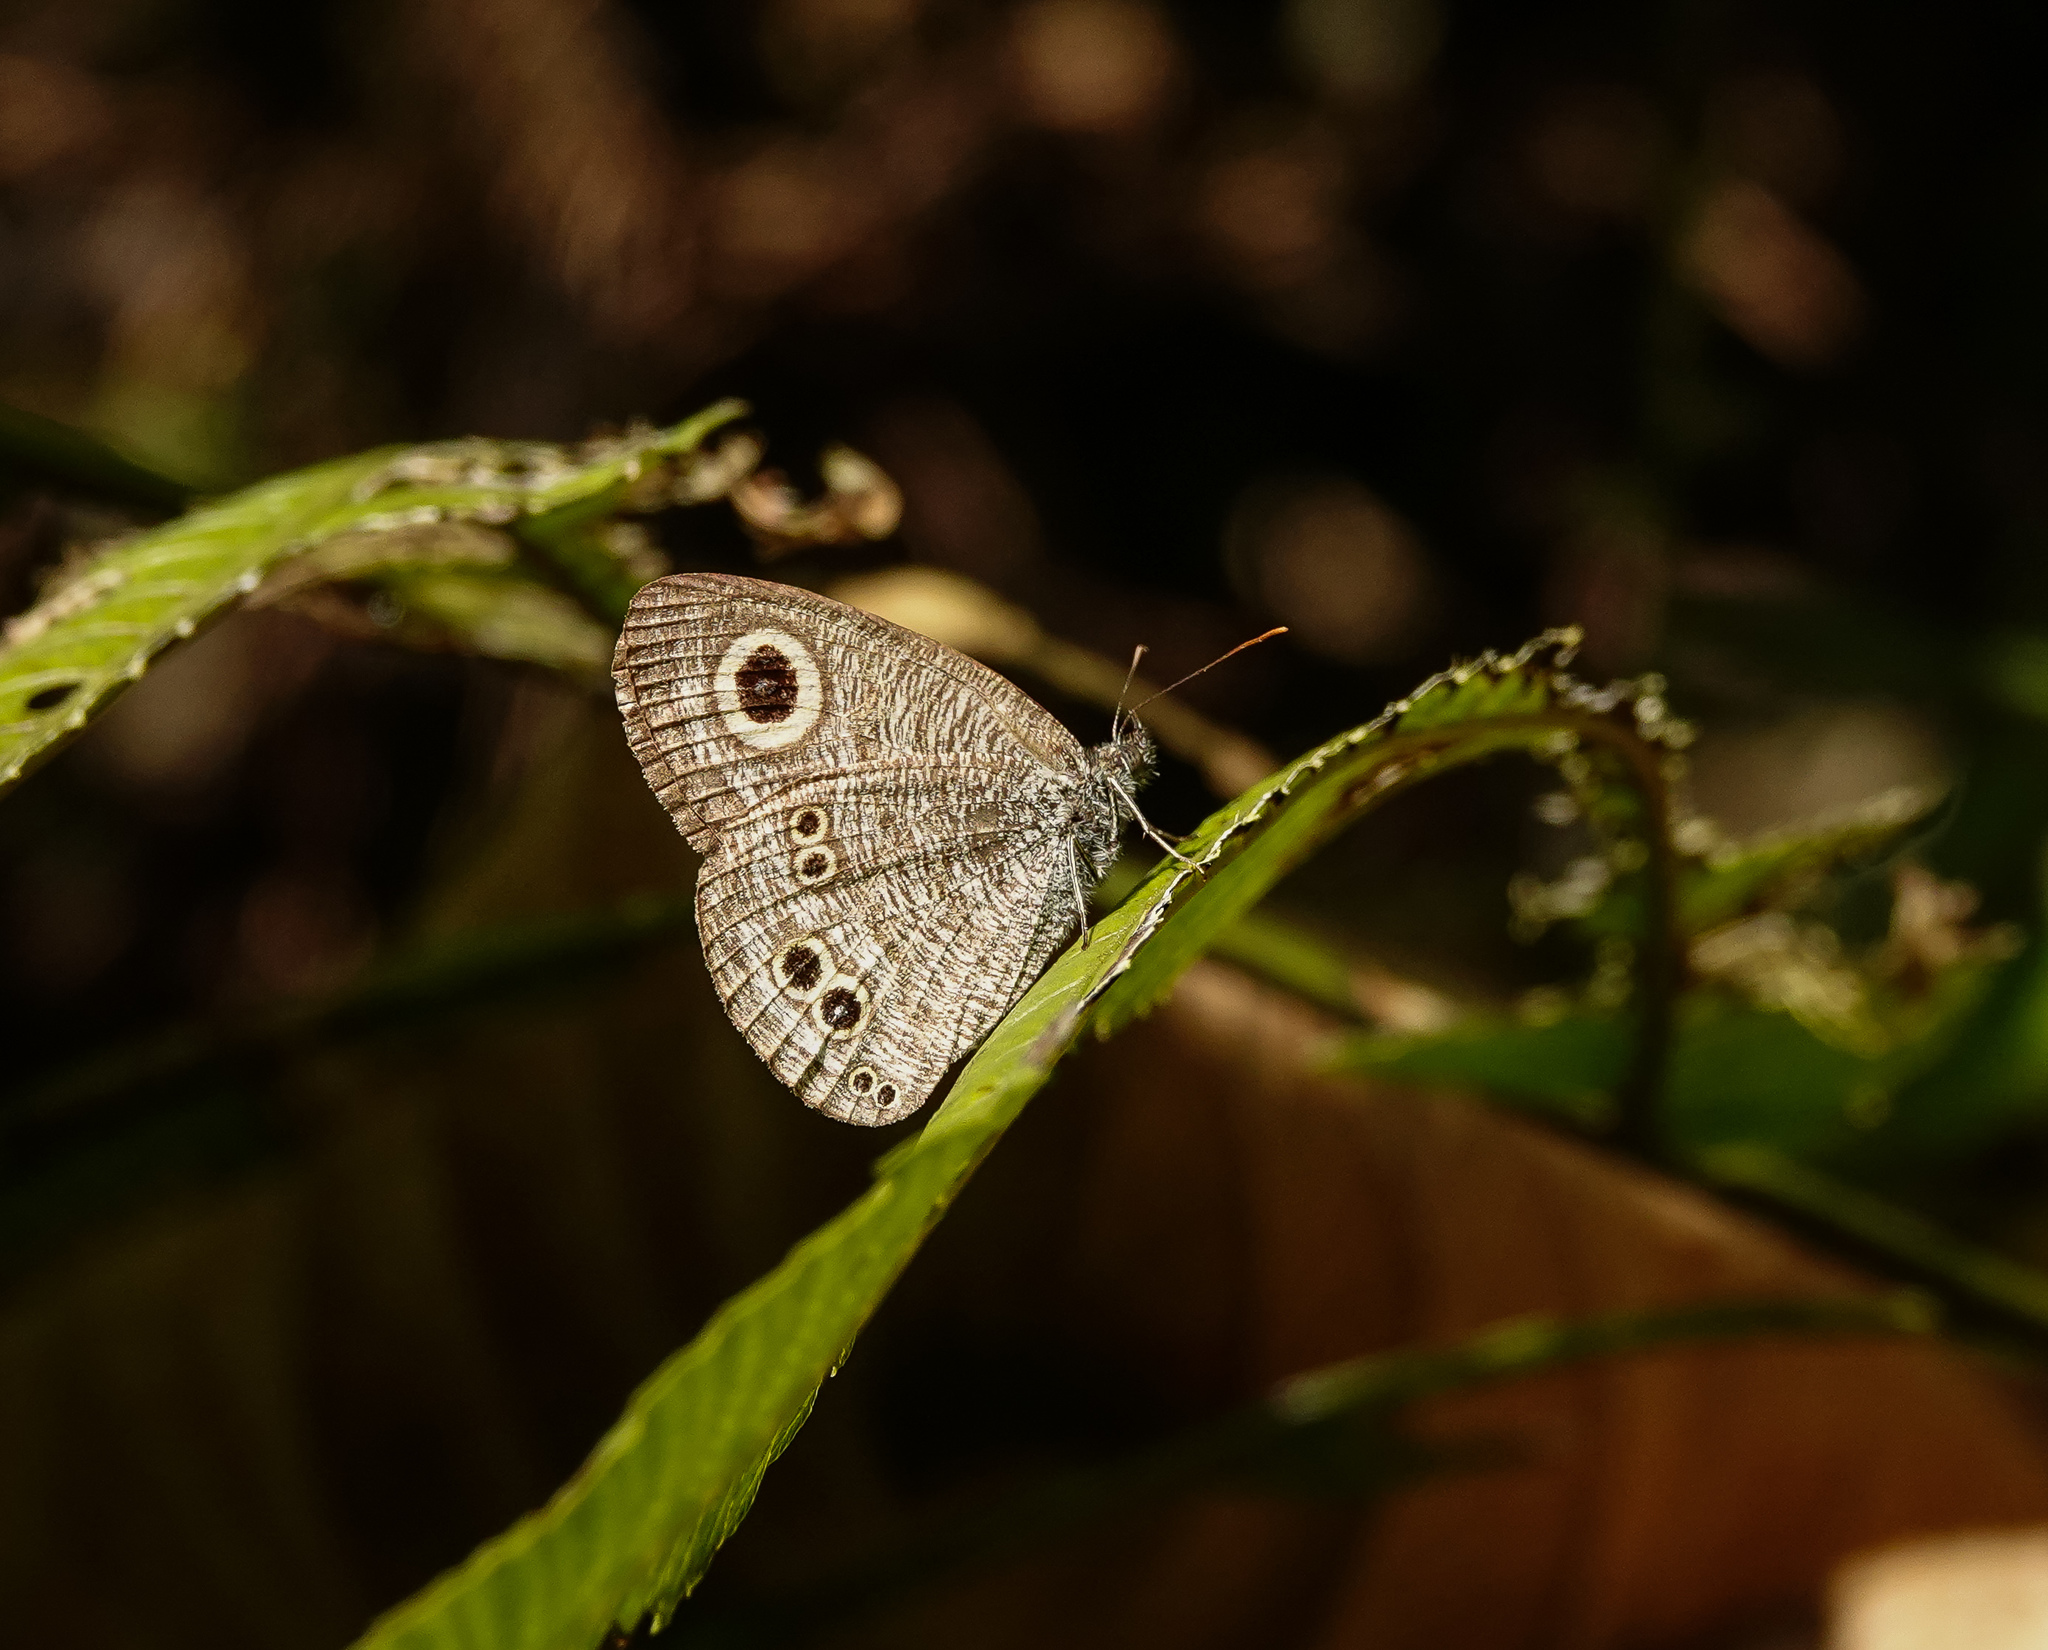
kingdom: Animalia
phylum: Arthropoda
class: Insecta
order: Lepidoptera
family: Nymphalidae
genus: Ypthima
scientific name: Ypthima baldus
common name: Common five-ring
